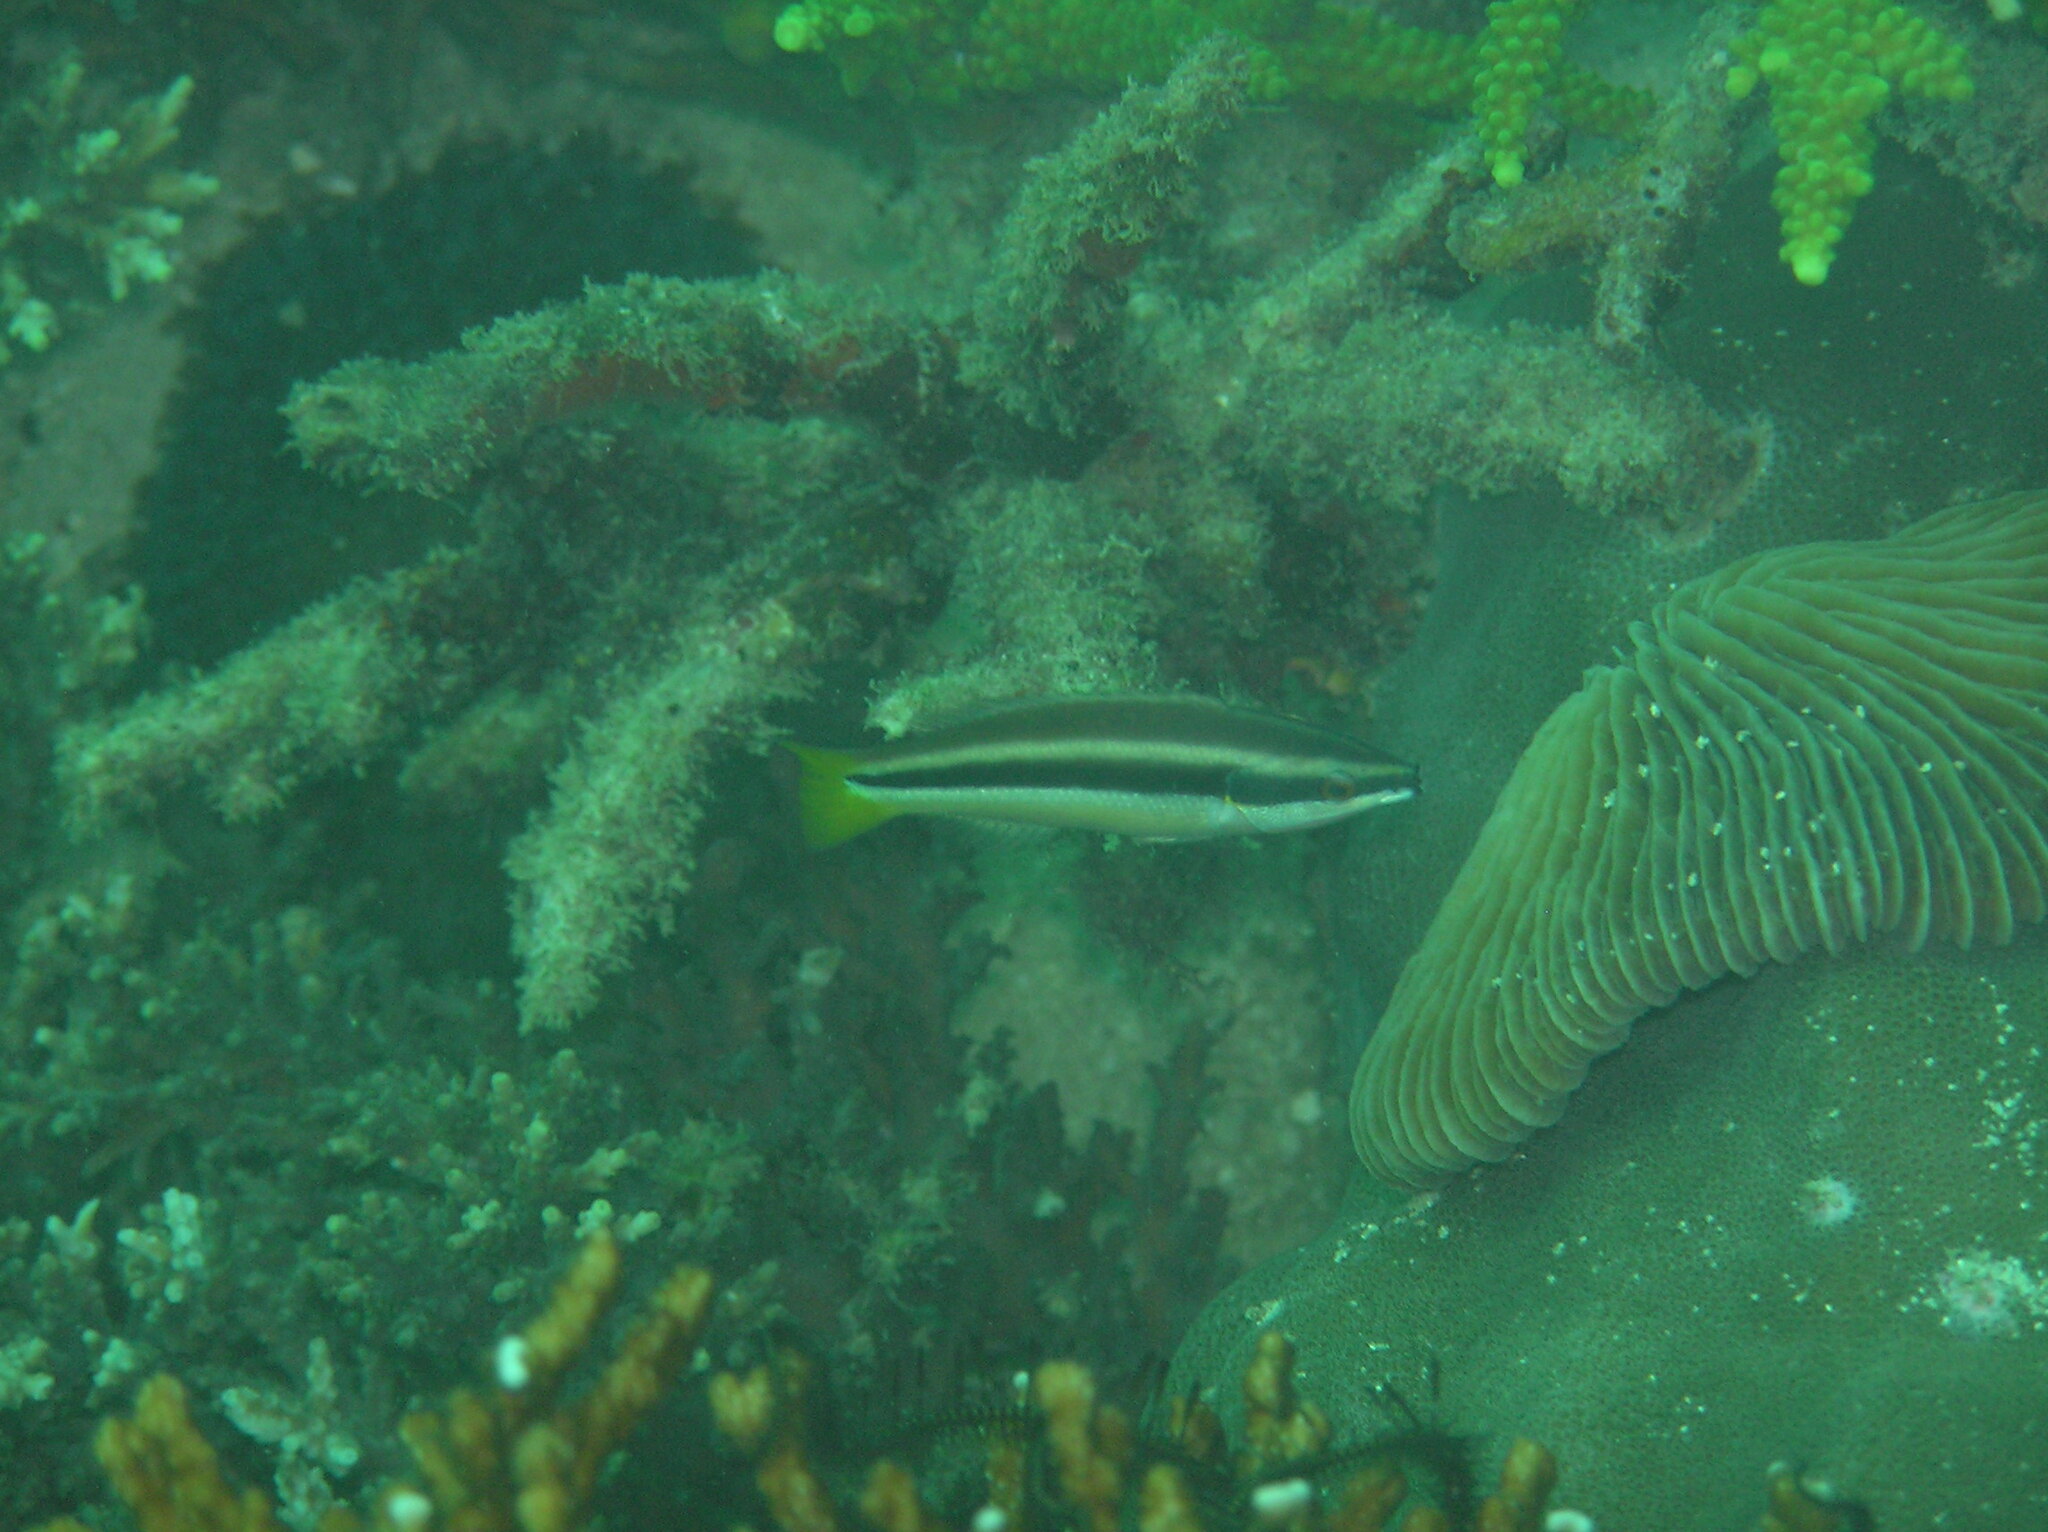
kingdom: Animalia
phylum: Chordata
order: Perciformes
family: Labridae
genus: Diproctacanthus
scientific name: Diproctacanthus xanthurus
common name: Wandering cleaner wrasse
